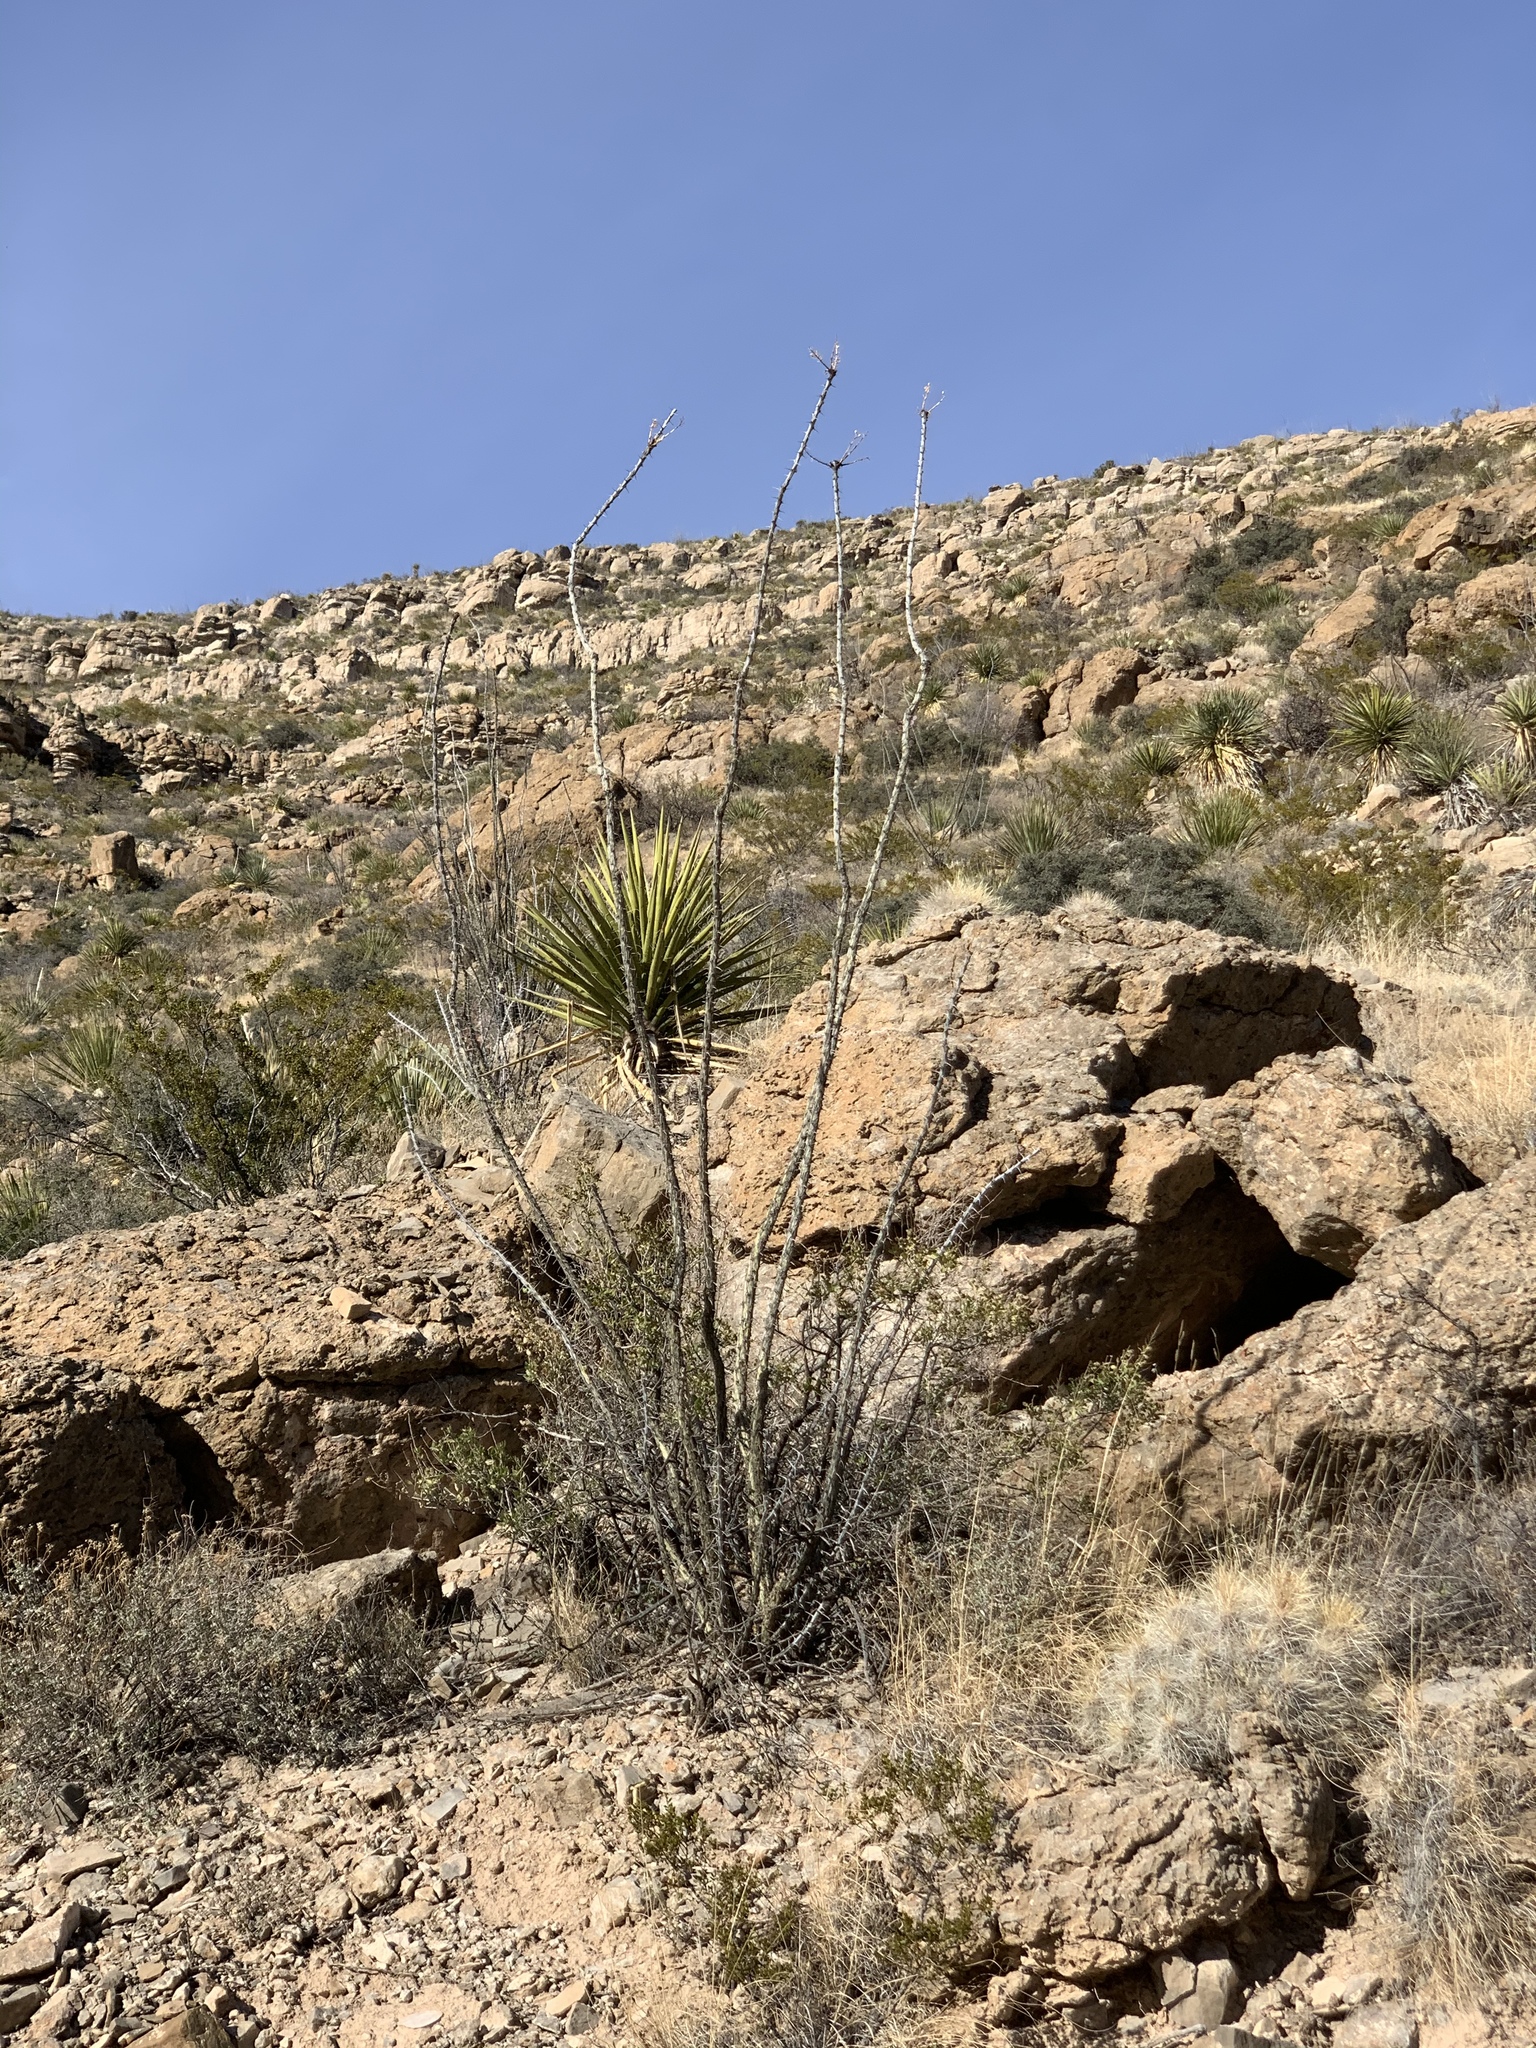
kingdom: Plantae
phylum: Tracheophyta
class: Magnoliopsida
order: Ericales
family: Fouquieriaceae
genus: Fouquieria
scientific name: Fouquieria splendens
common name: Vine-cactus
